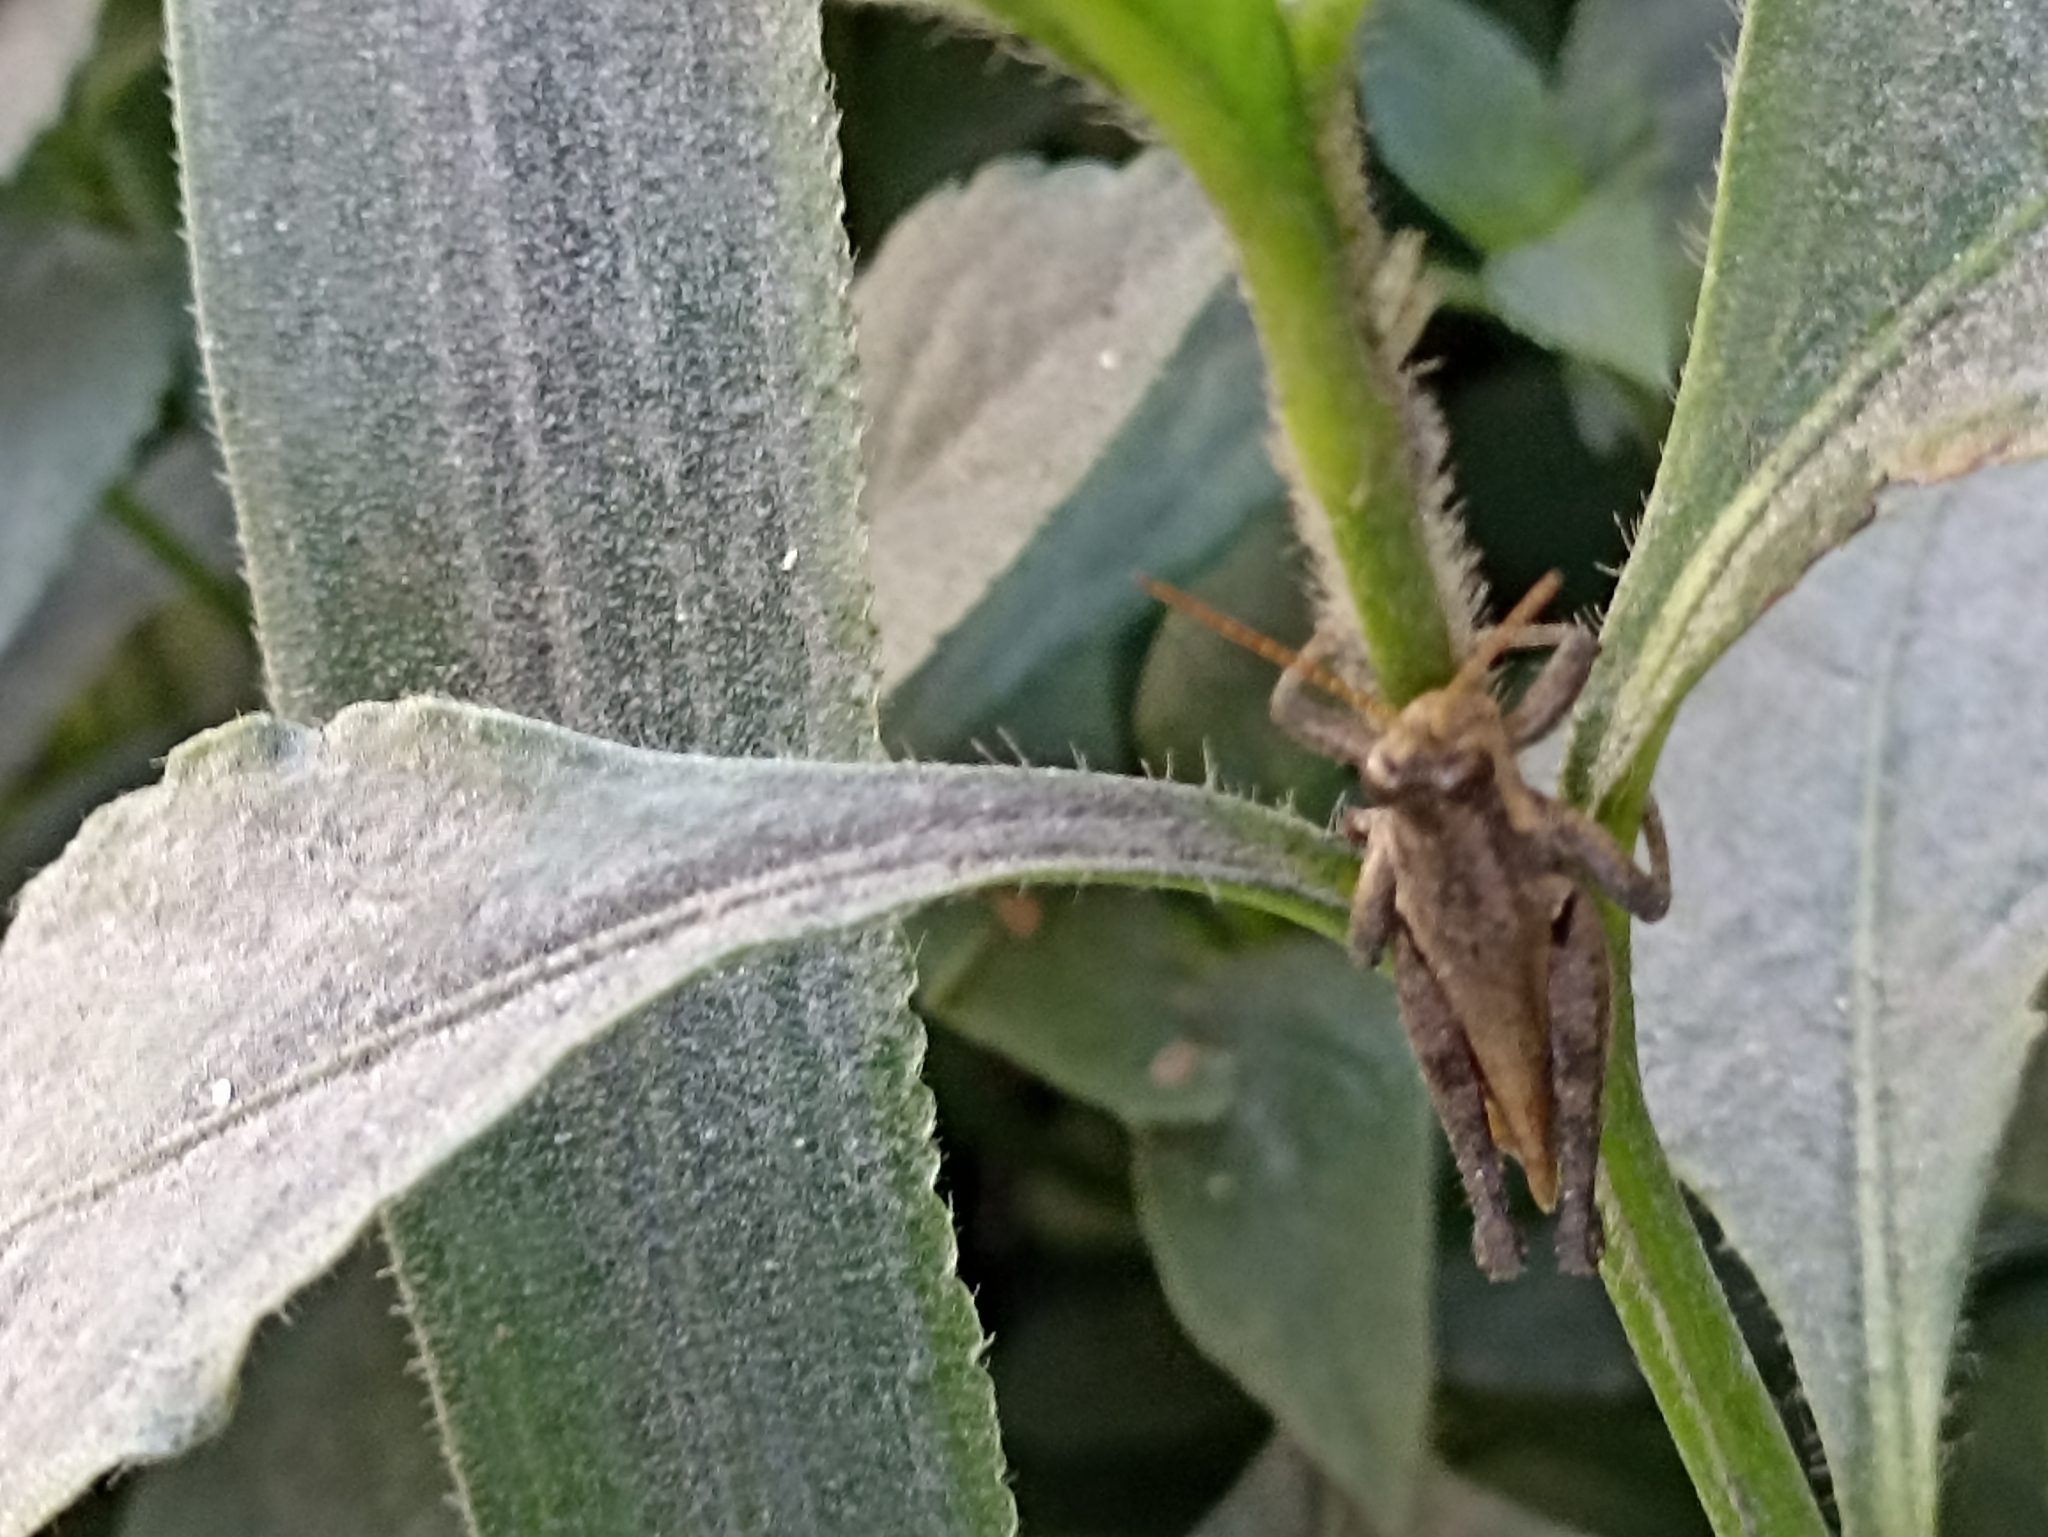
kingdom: Animalia
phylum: Arthropoda
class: Insecta
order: Orthoptera
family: Acrididae
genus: Ronderosia
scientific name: Ronderosia bergii
